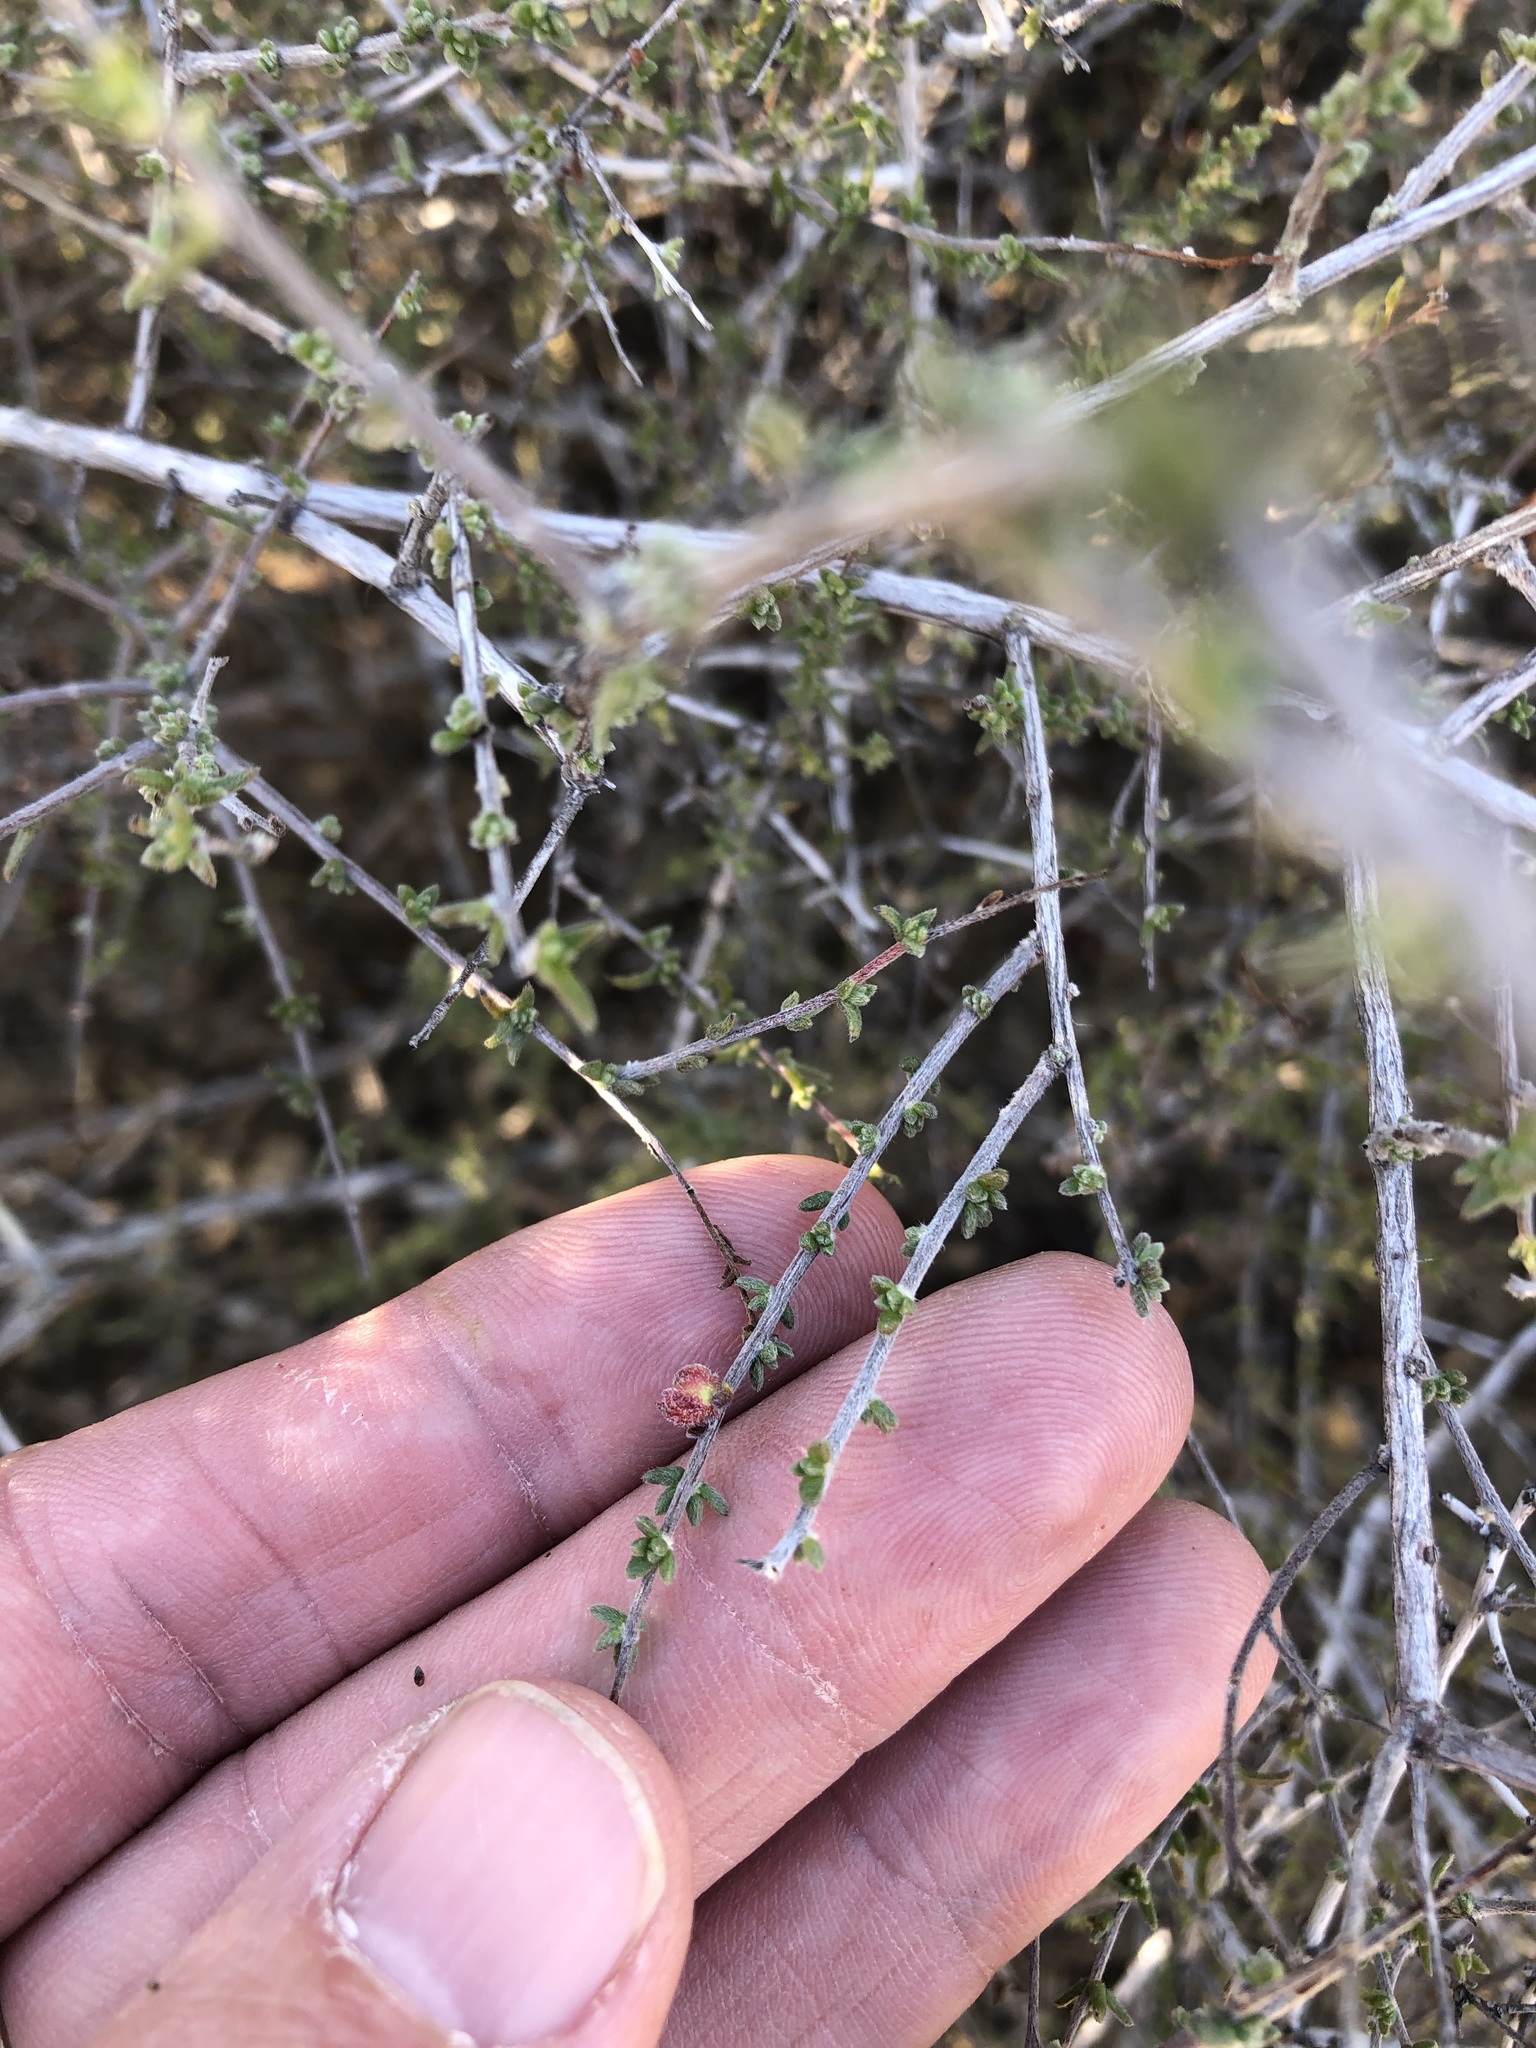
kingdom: Plantae
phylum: Tracheophyta
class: Magnoliopsida
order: Zygophyllales
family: Krameriaceae
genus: Krameria
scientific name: Krameria ramosissima
